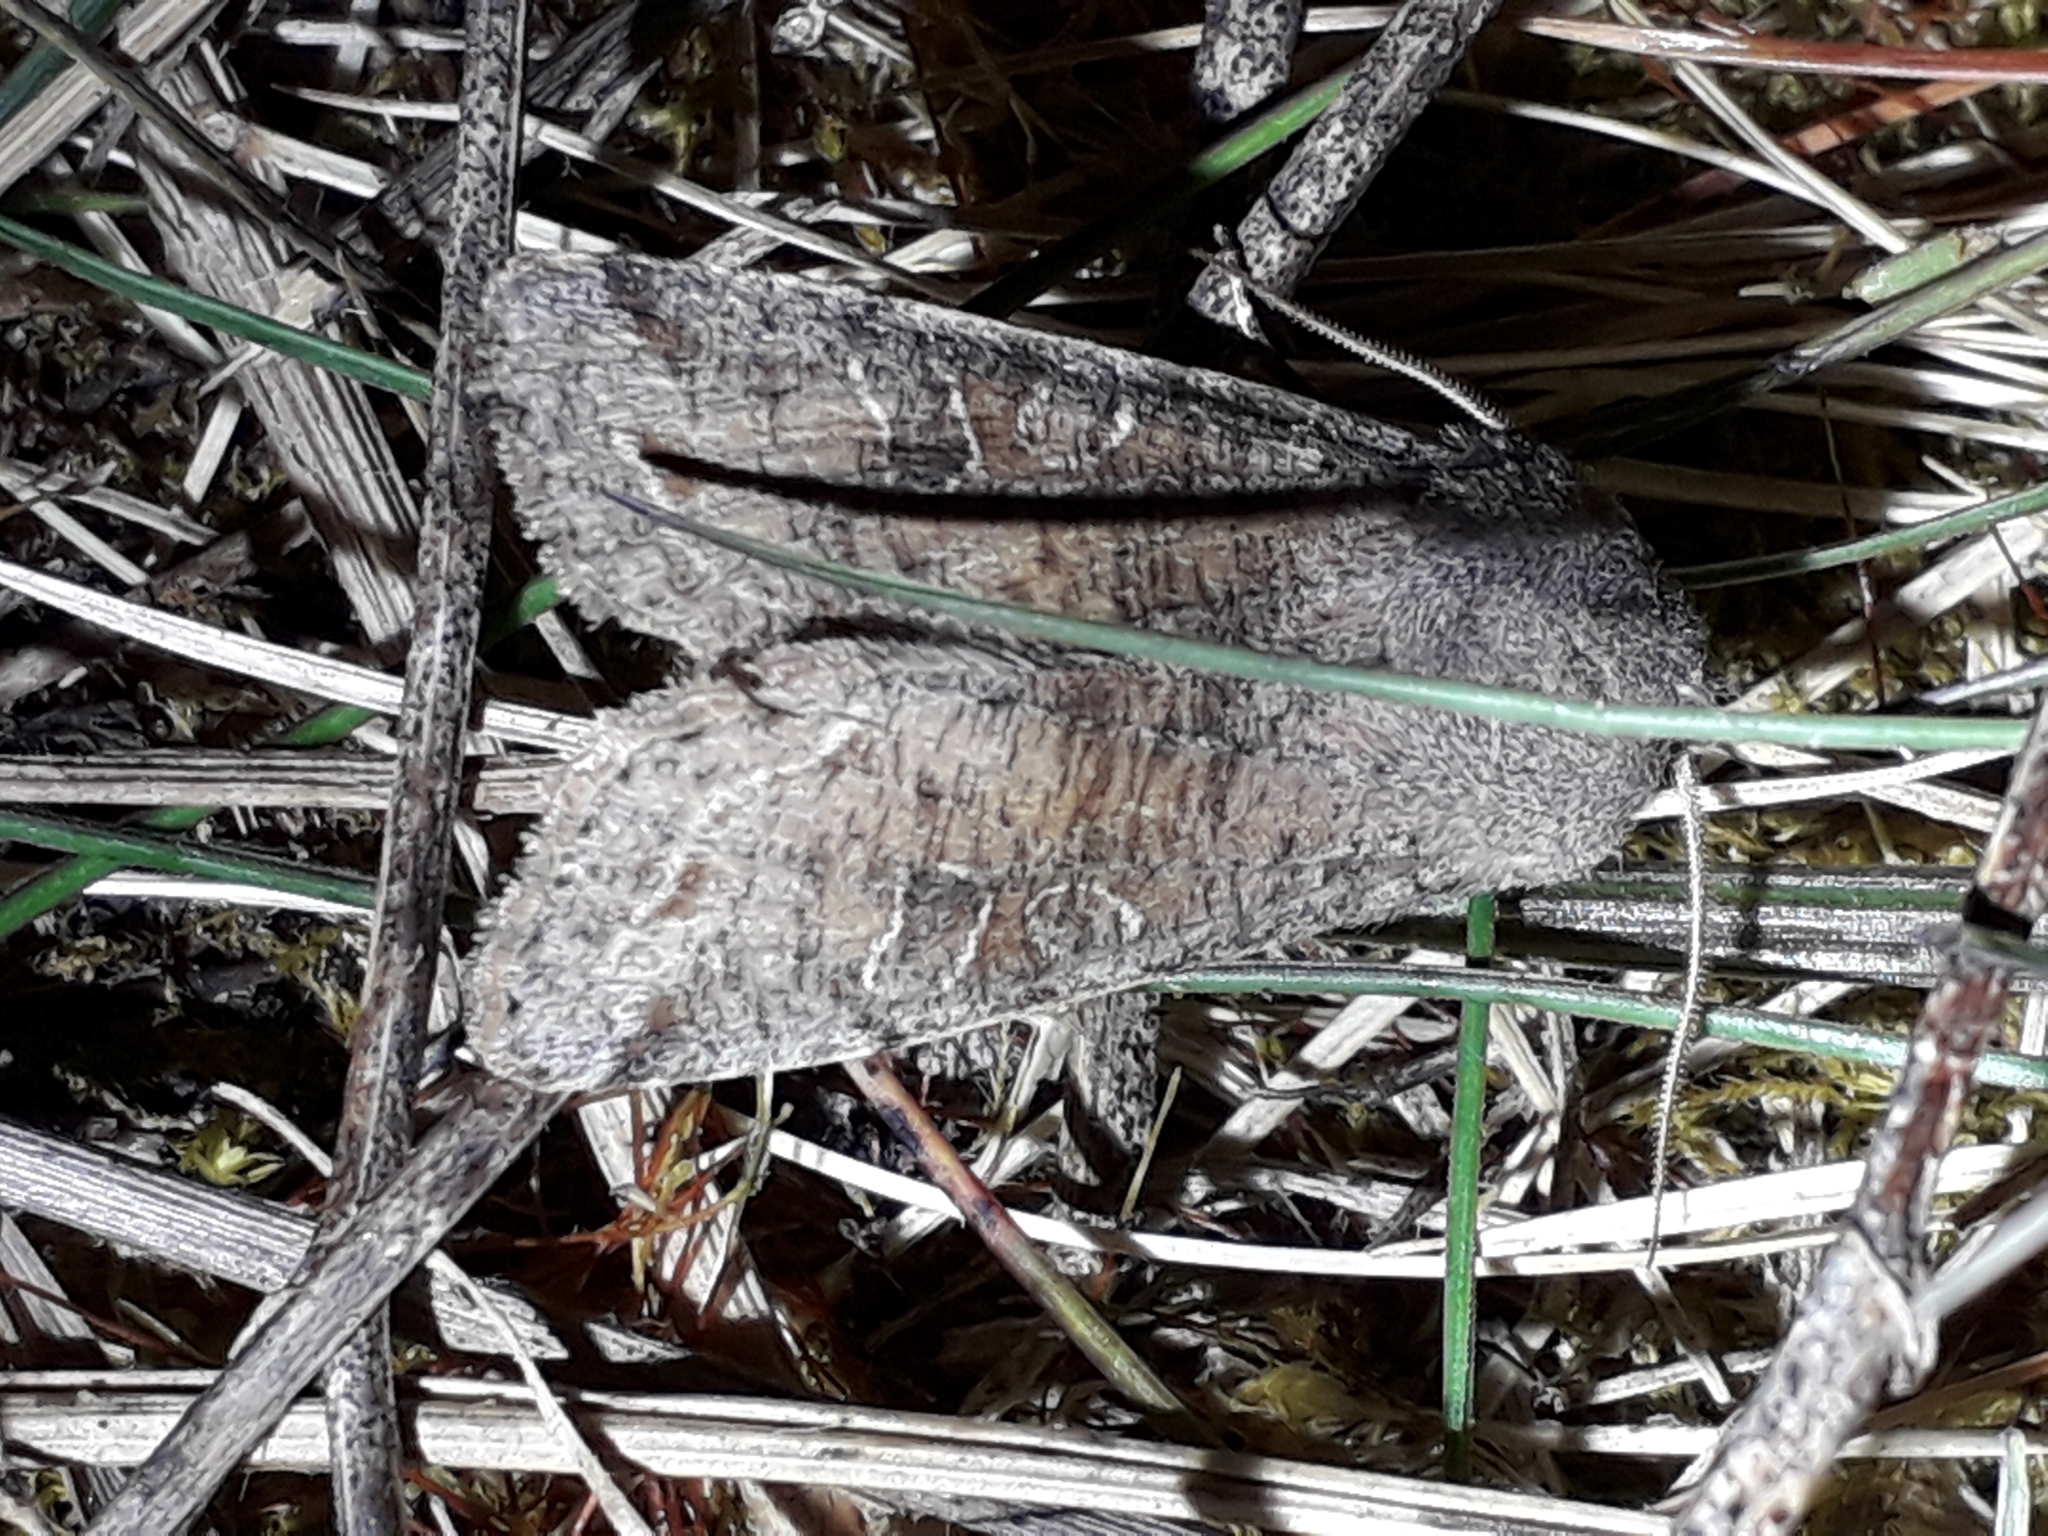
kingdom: Animalia
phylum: Arthropoda
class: Insecta
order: Lepidoptera
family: Noctuidae
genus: Orthosia
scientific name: Orthosia incerta
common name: Clouded drab
